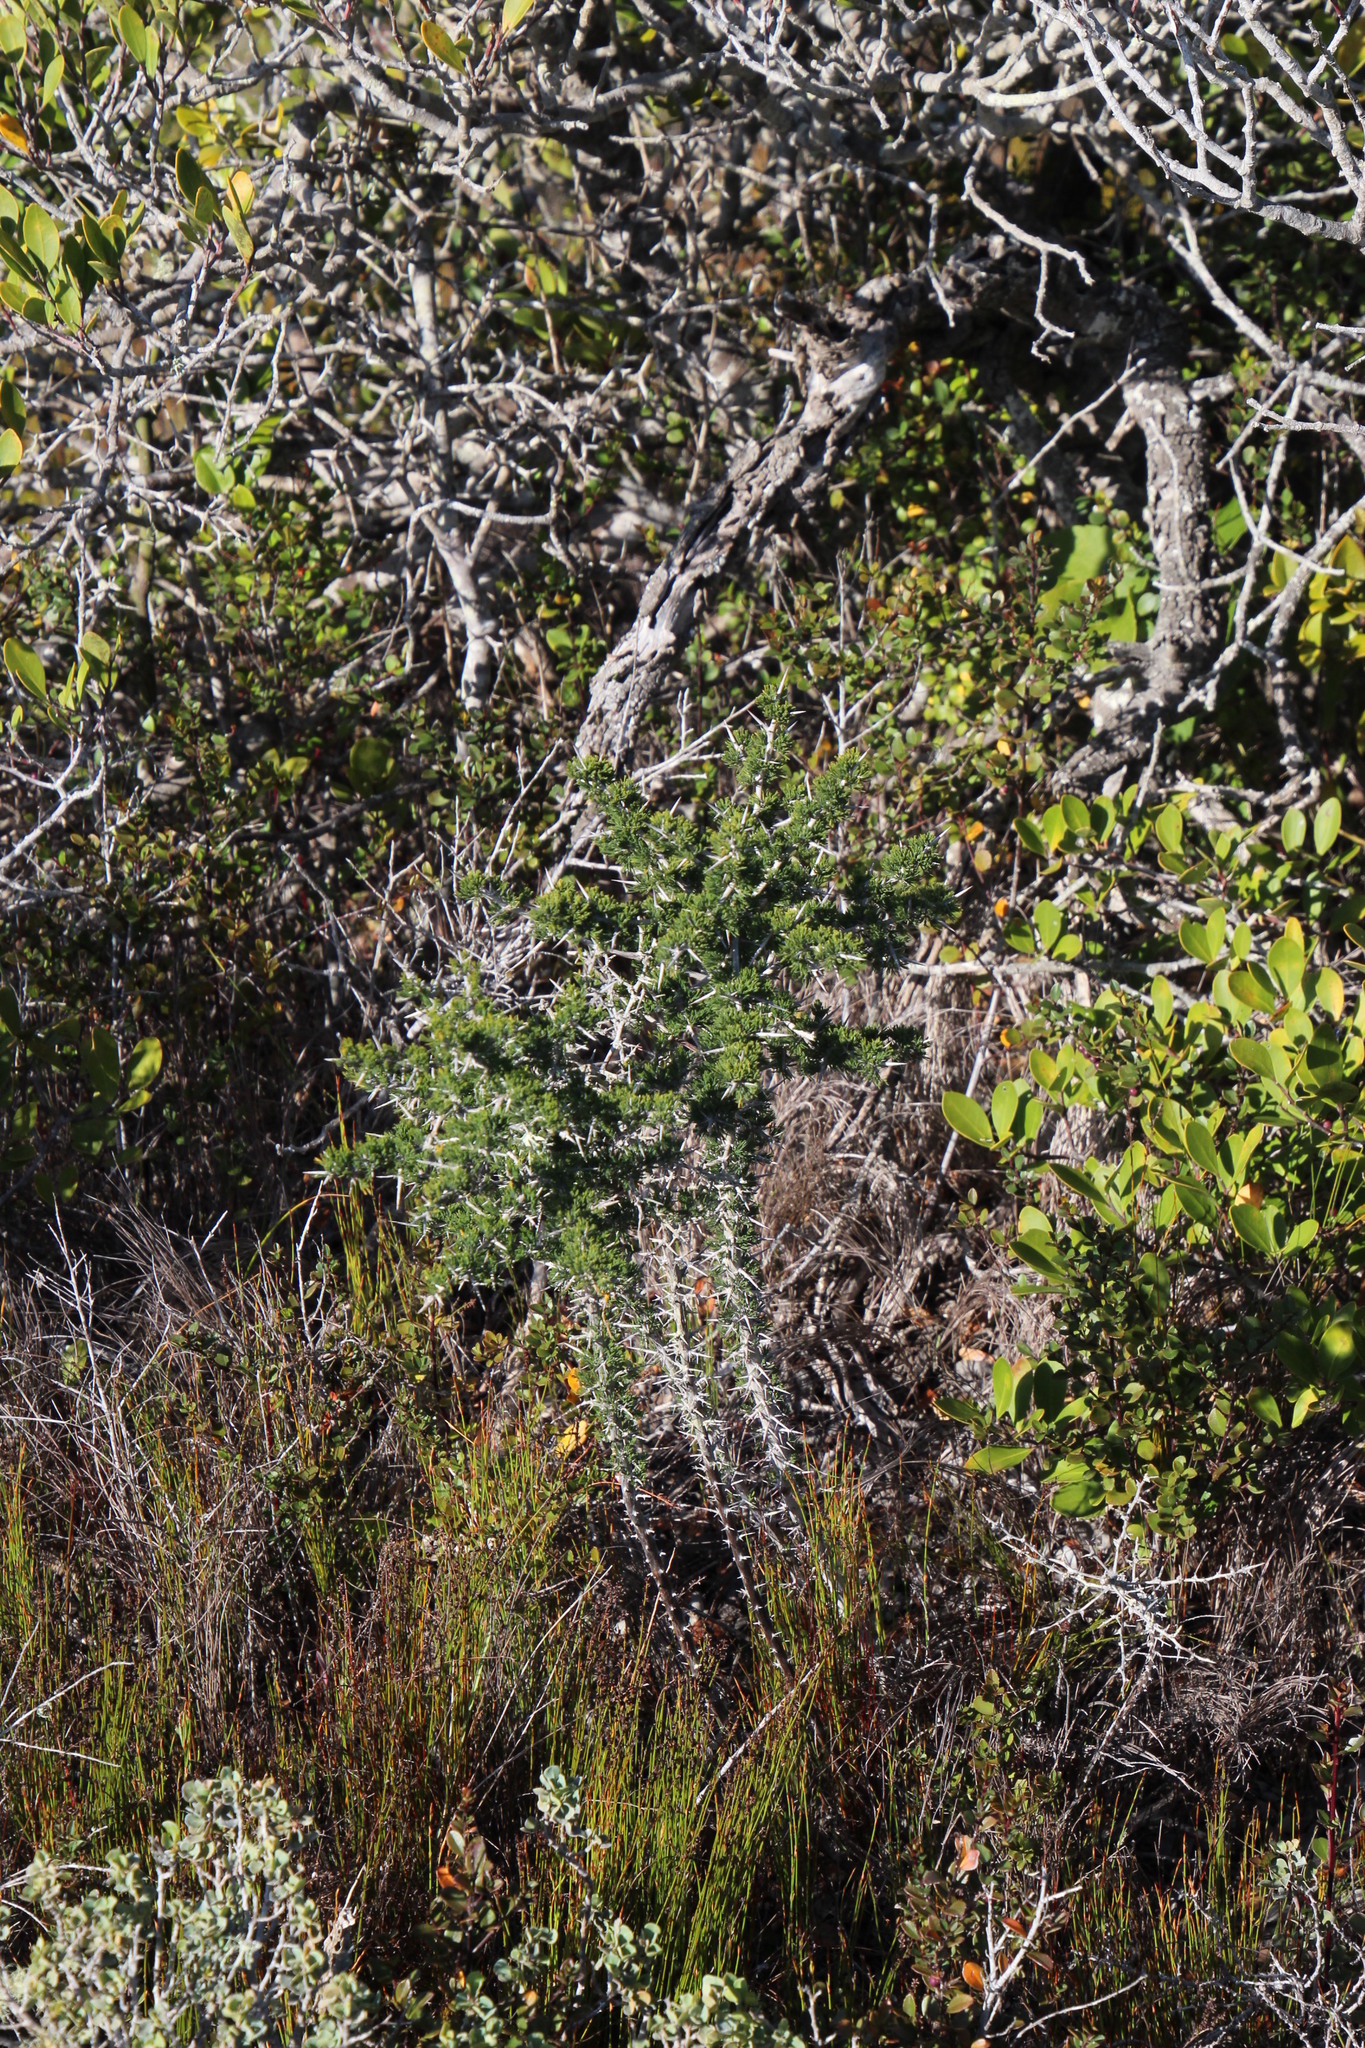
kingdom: Plantae
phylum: Tracheophyta
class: Liliopsida
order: Asparagales
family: Asparagaceae
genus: Asparagus
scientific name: Asparagus mariae
